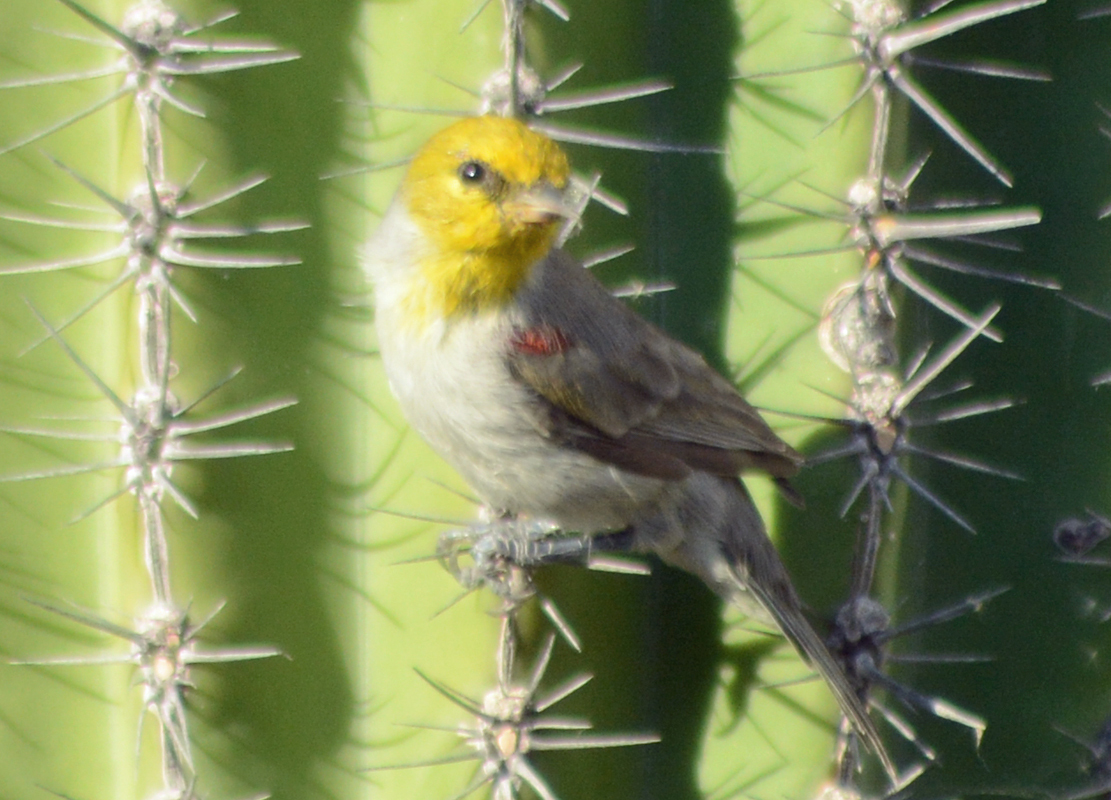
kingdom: Animalia
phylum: Chordata
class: Aves
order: Passeriformes
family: Remizidae
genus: Auriparus
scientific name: Auriparus flaviceps
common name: Verdin
